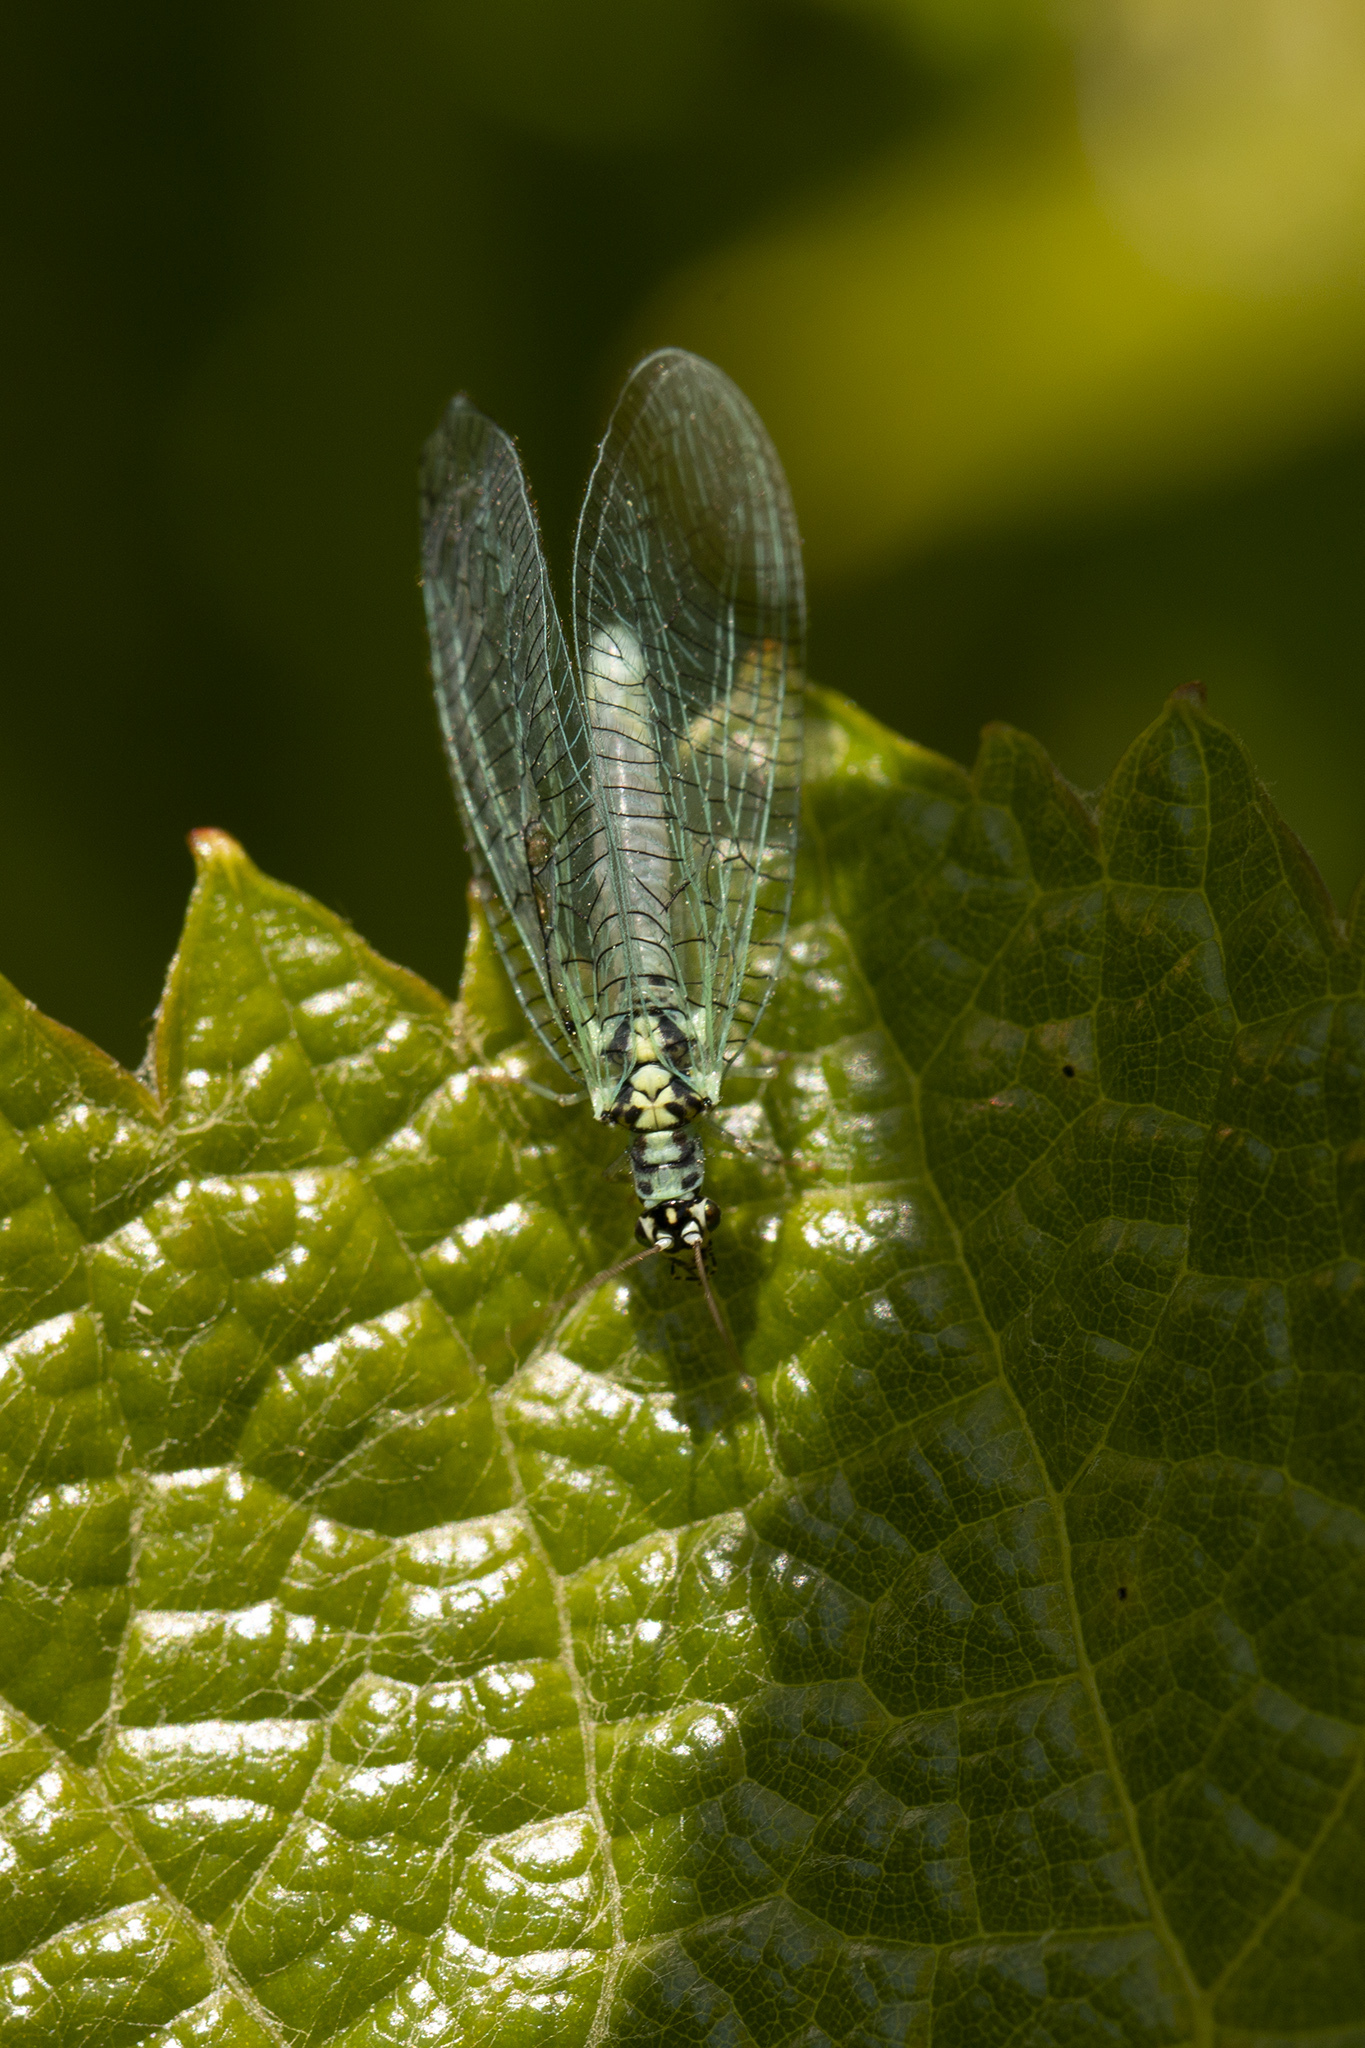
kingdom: Animalia
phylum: Arthropoda
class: Insecta
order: Neuroptera
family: Chrysopidae
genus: Chrysopa
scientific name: Chrysopa perla
